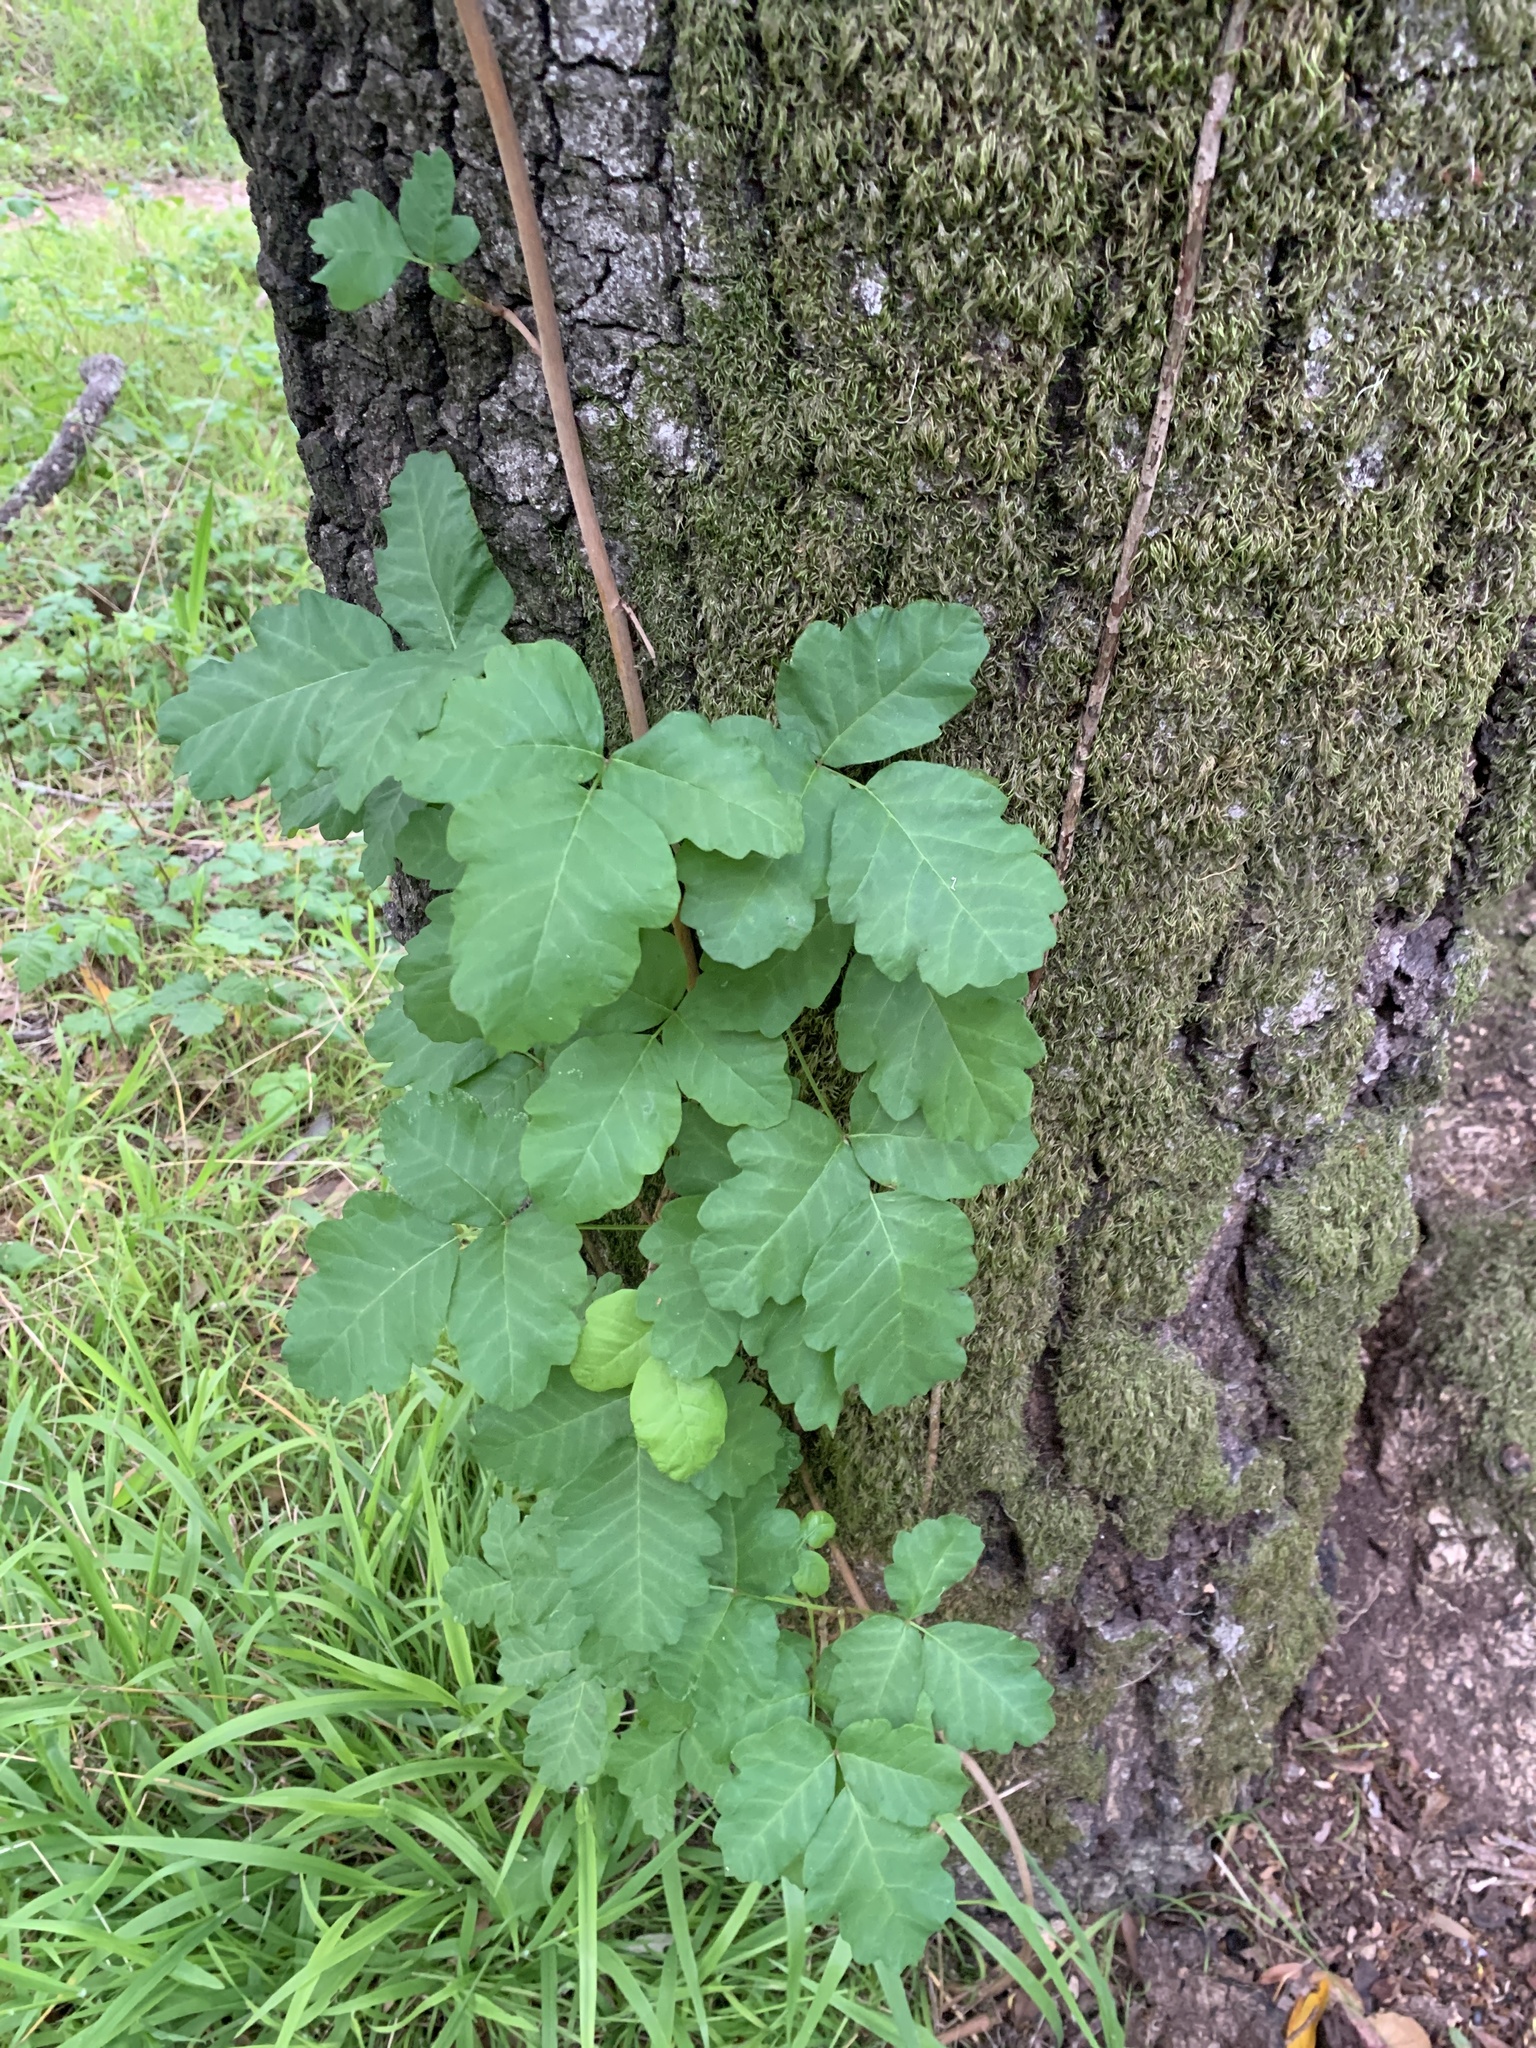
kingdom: Plantae
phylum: Tracheophyta
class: Magnoliopsida
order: Sapindales
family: Anacardiaceae
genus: Toxicodendron
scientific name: Toxicodendron diversilobum
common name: Pacific poison-oak
